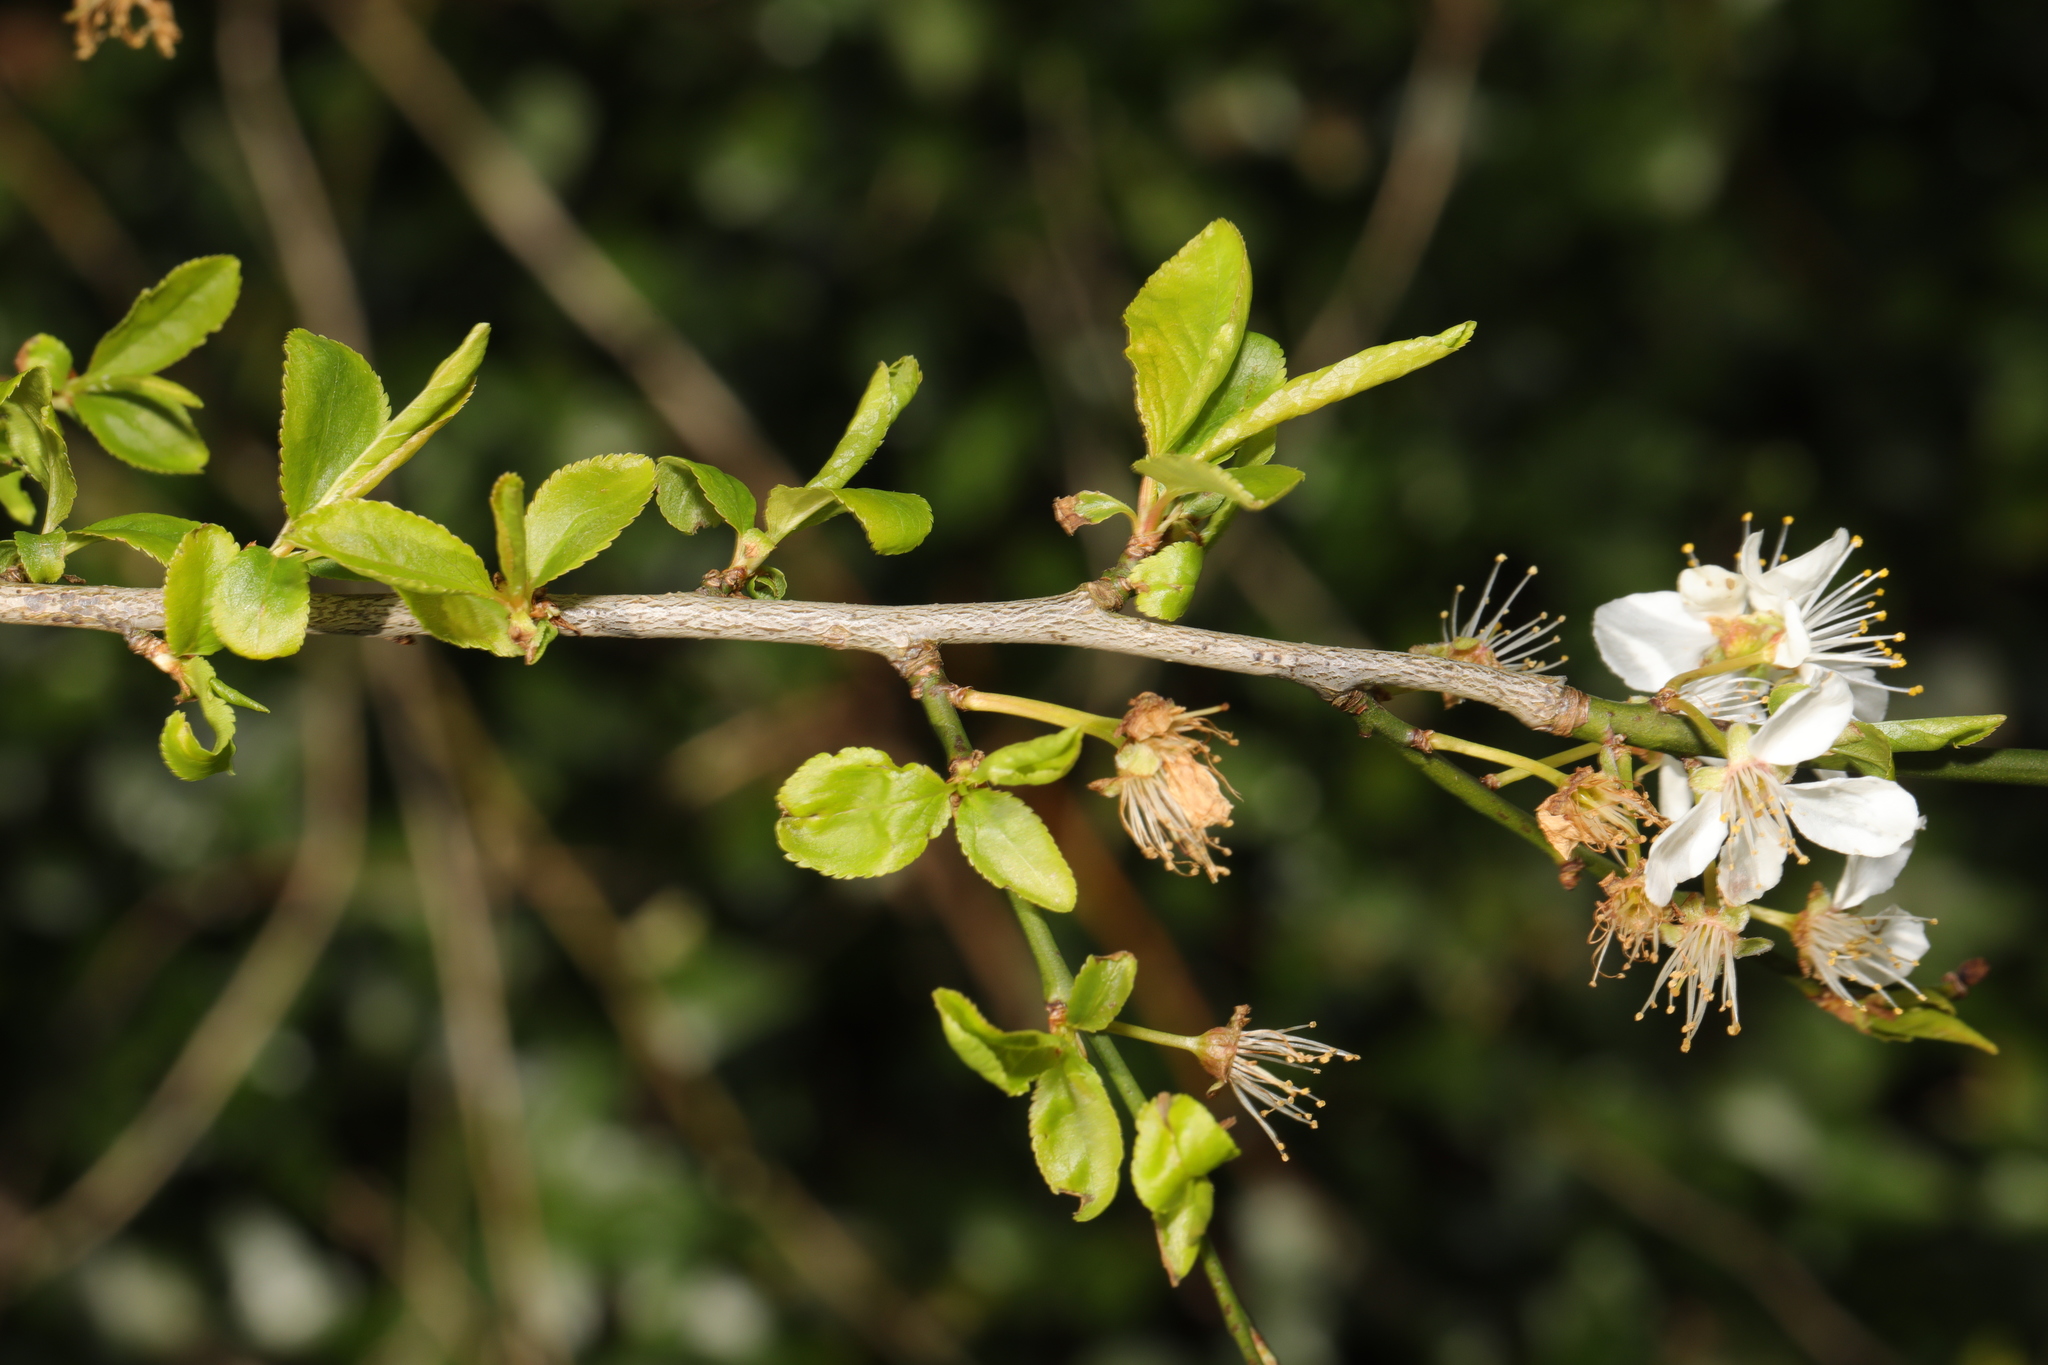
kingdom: Plantae
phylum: Tracheophyta
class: Magnoliopsida
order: Rosales
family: Rosaceae
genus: Prunus
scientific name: Prunus cerasifera
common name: Cherry plum
